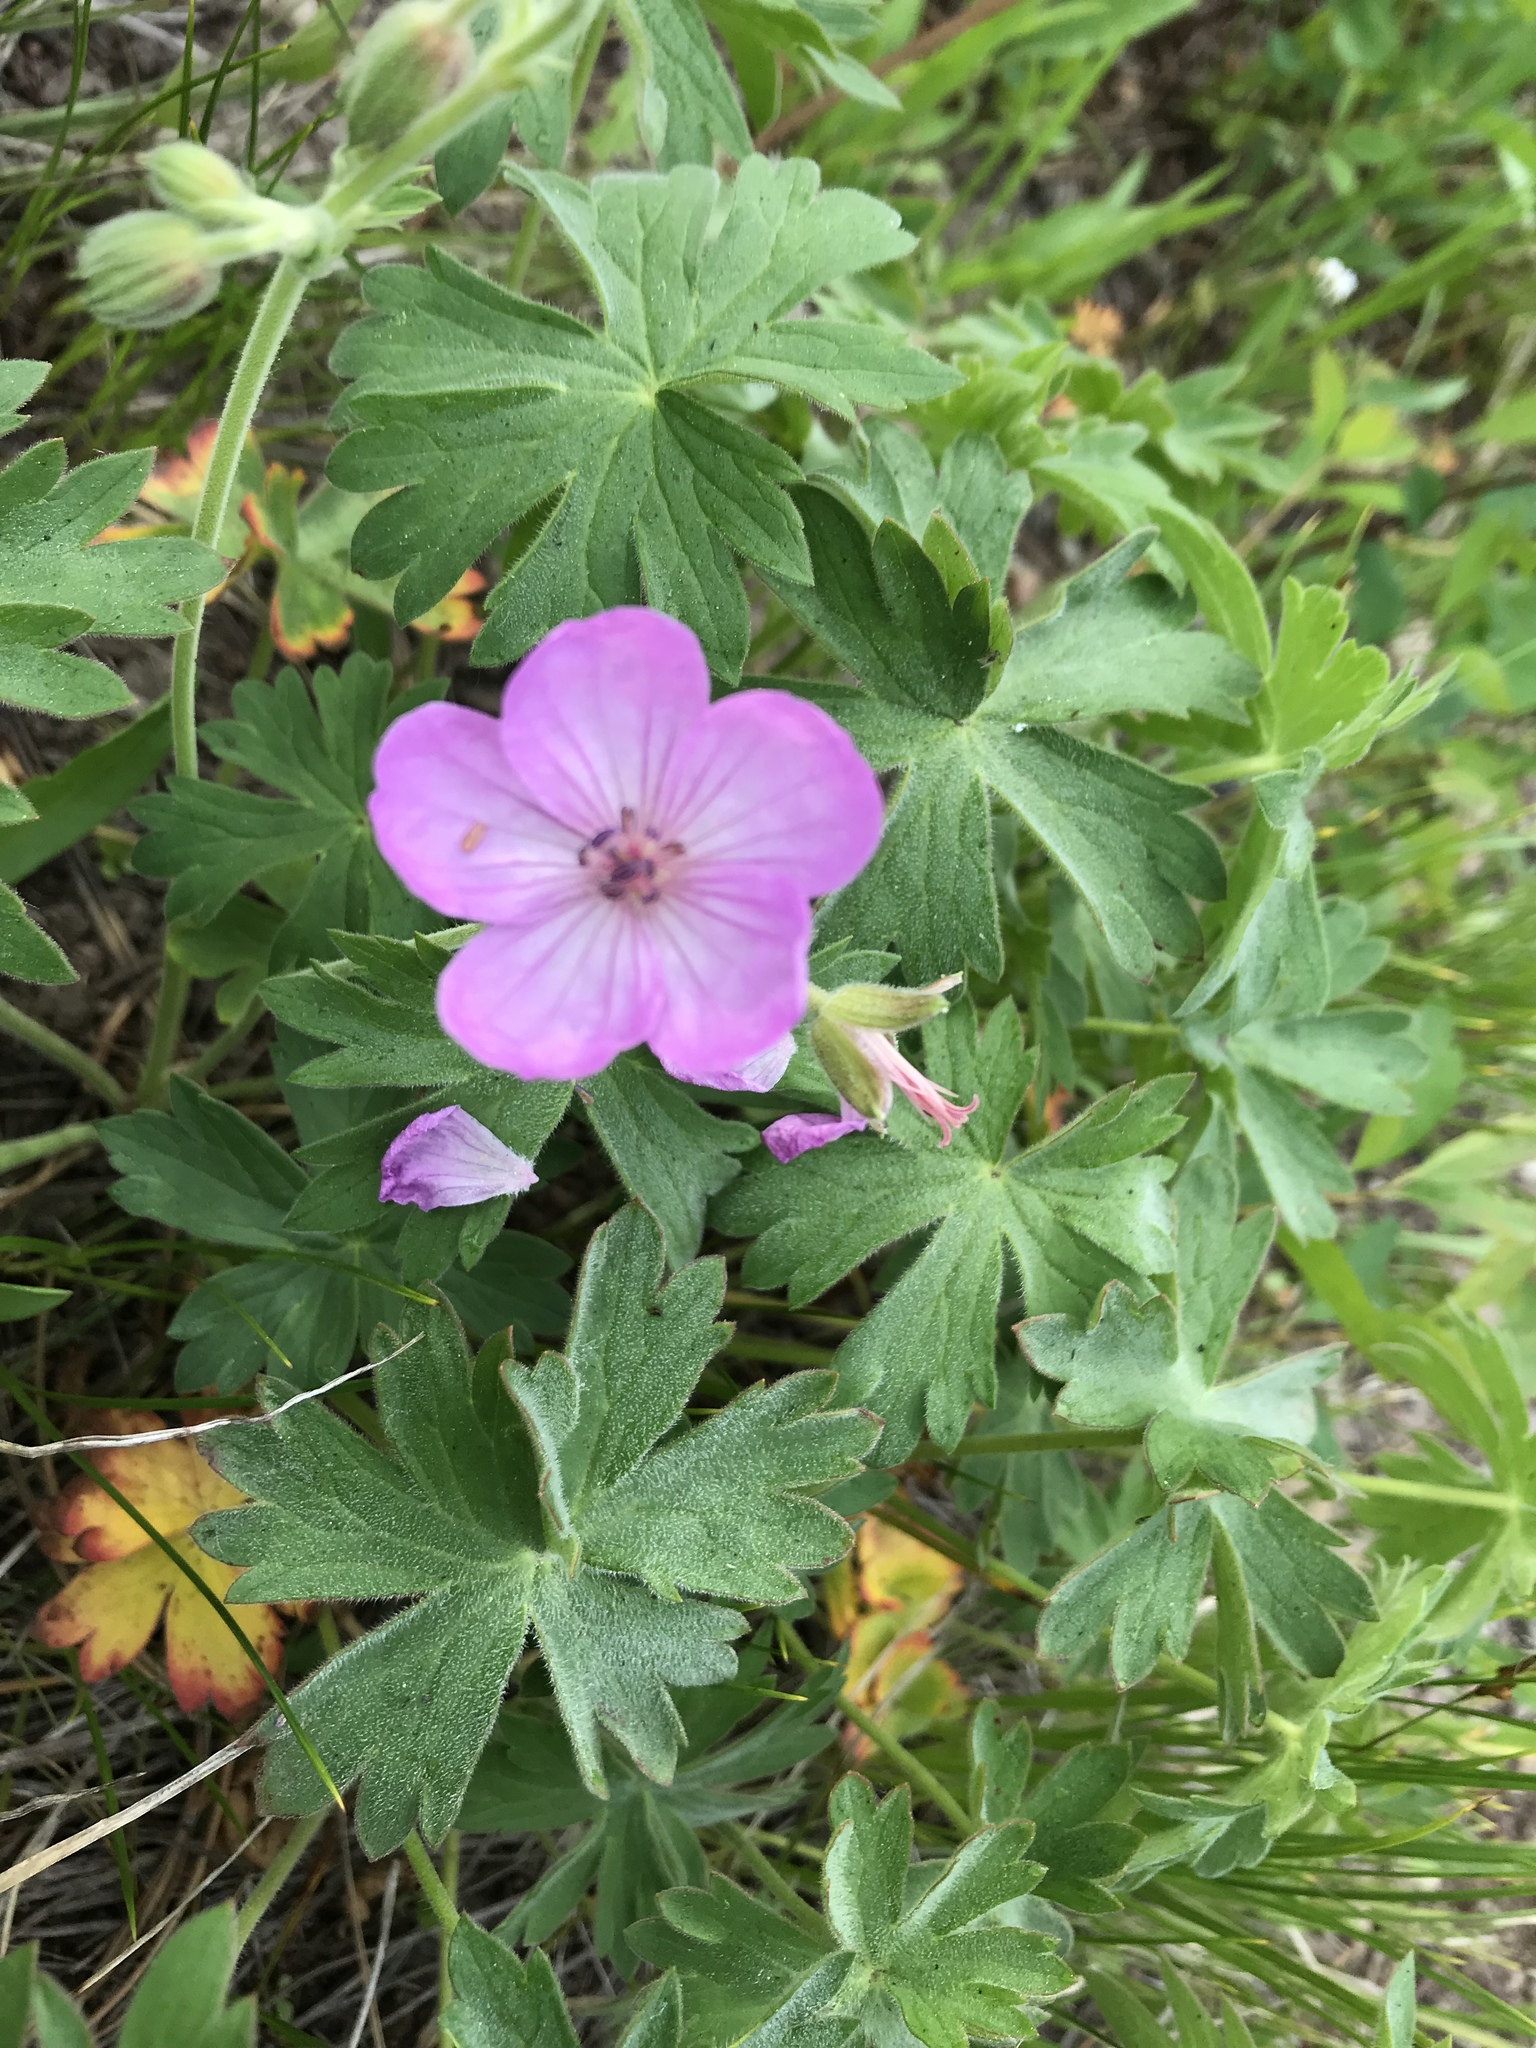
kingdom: Plantae
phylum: Tracheophyta
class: Magnoliopsida
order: Geraniales
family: Geraniaceae
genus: Geranium
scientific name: Geranium viscosissimum
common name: Purple geranium
